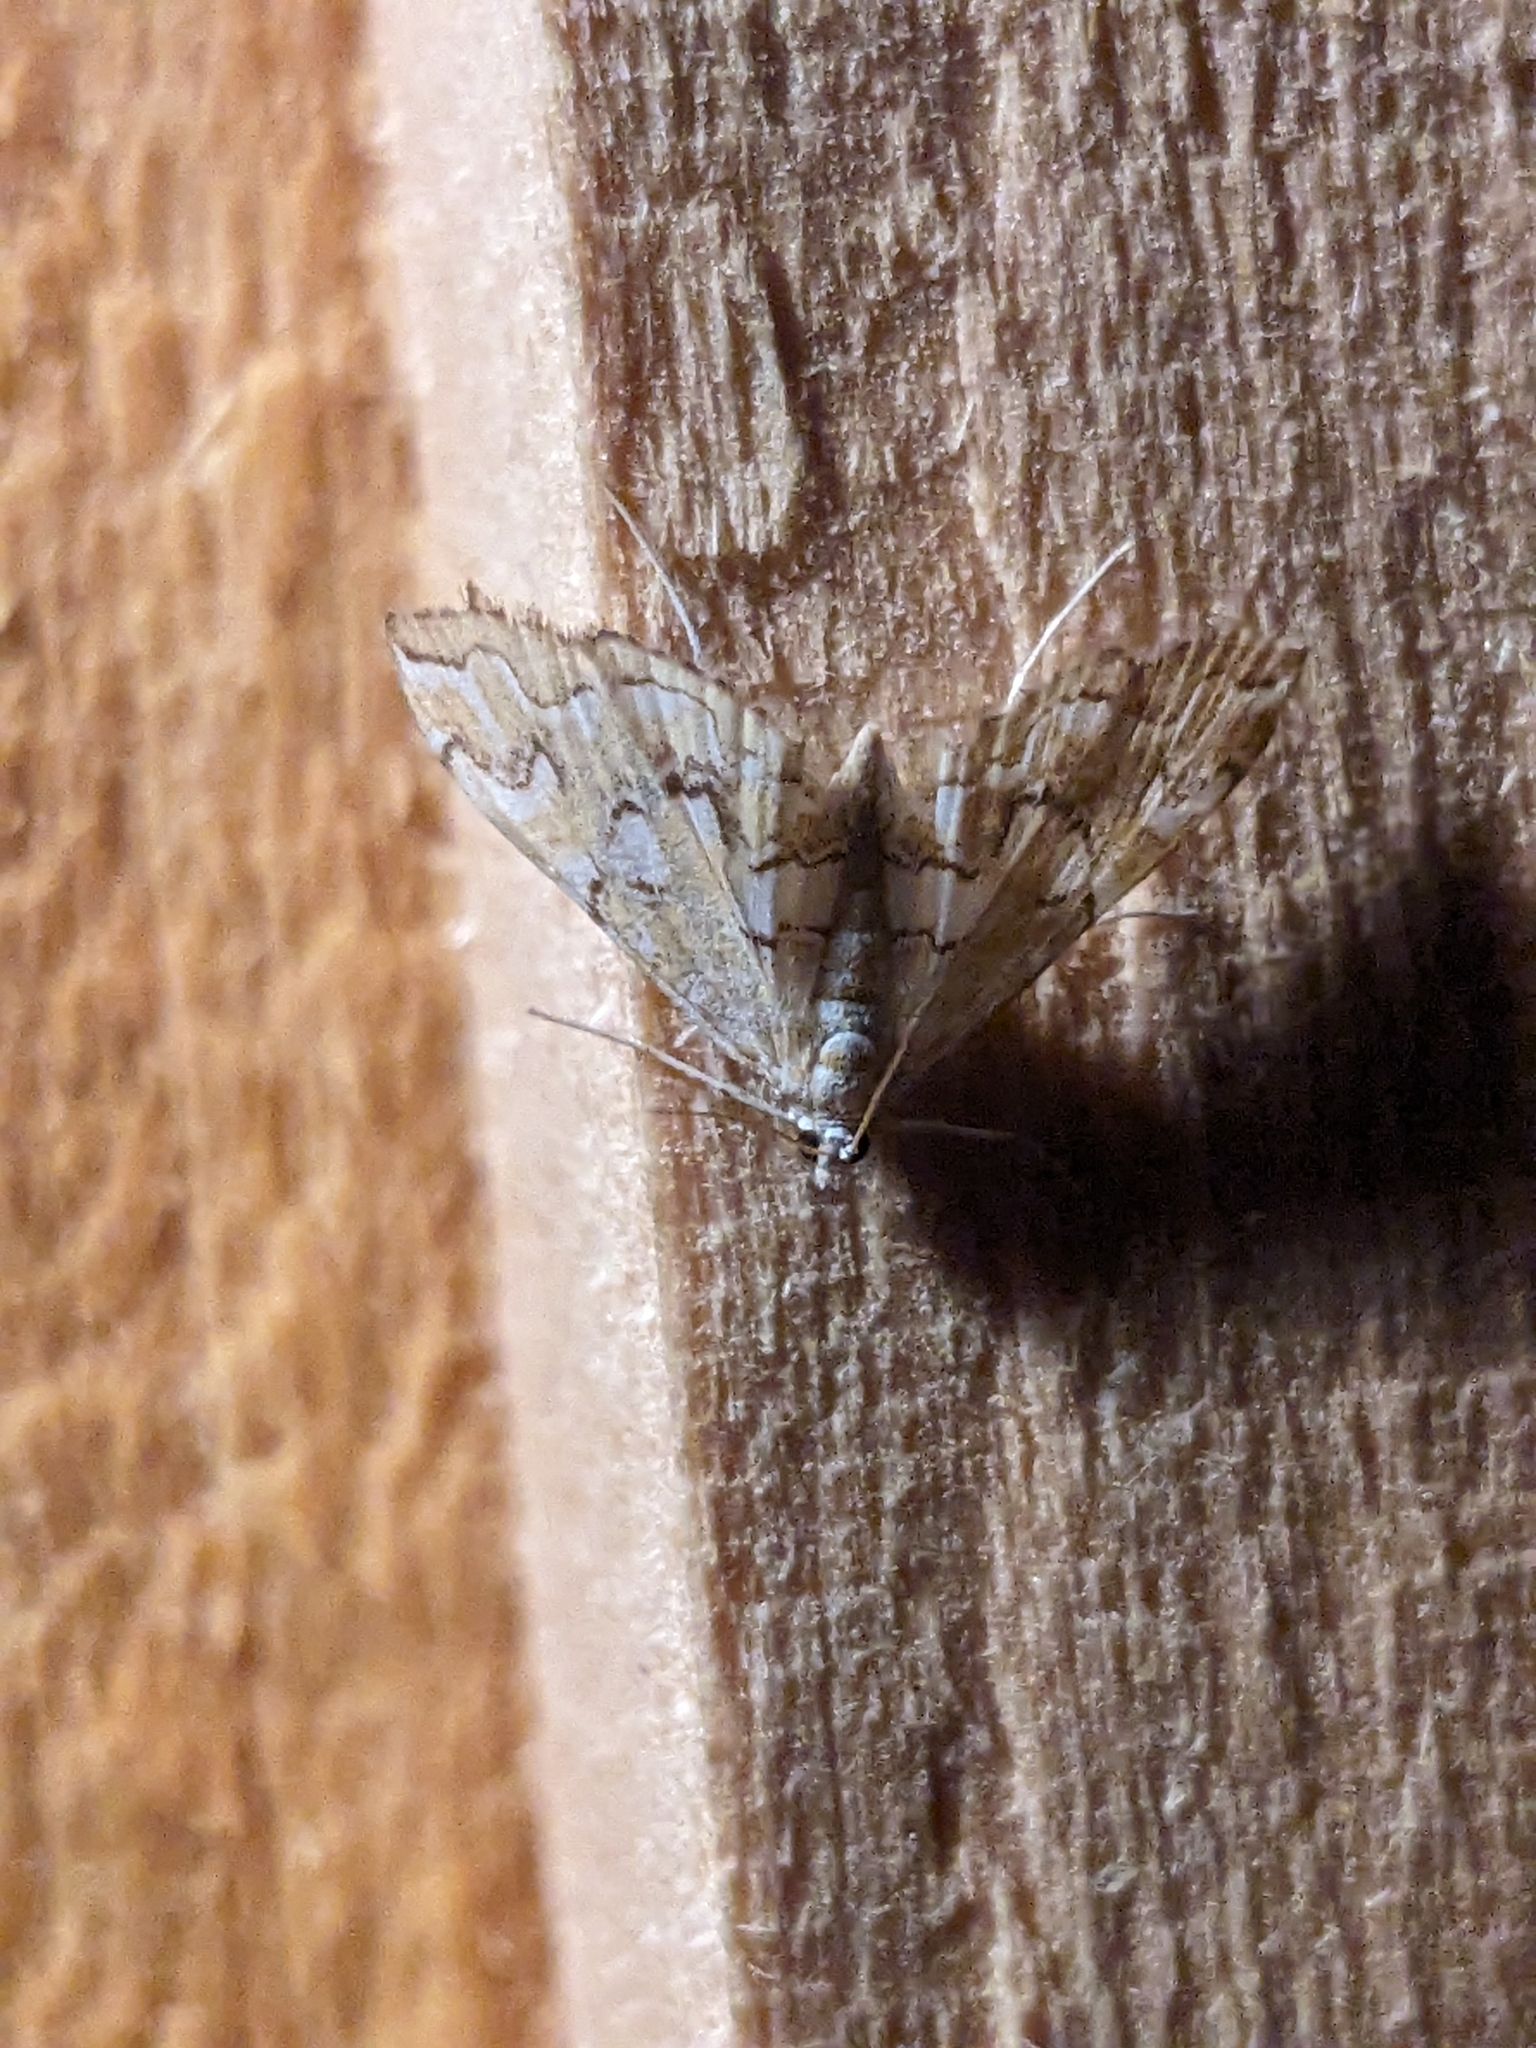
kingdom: Animalia
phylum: Arthropoda
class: Insecta
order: Lepidoptera
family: Crambidae
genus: Elophila
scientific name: Elophila icciusalis
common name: Pondside pyralid moth
